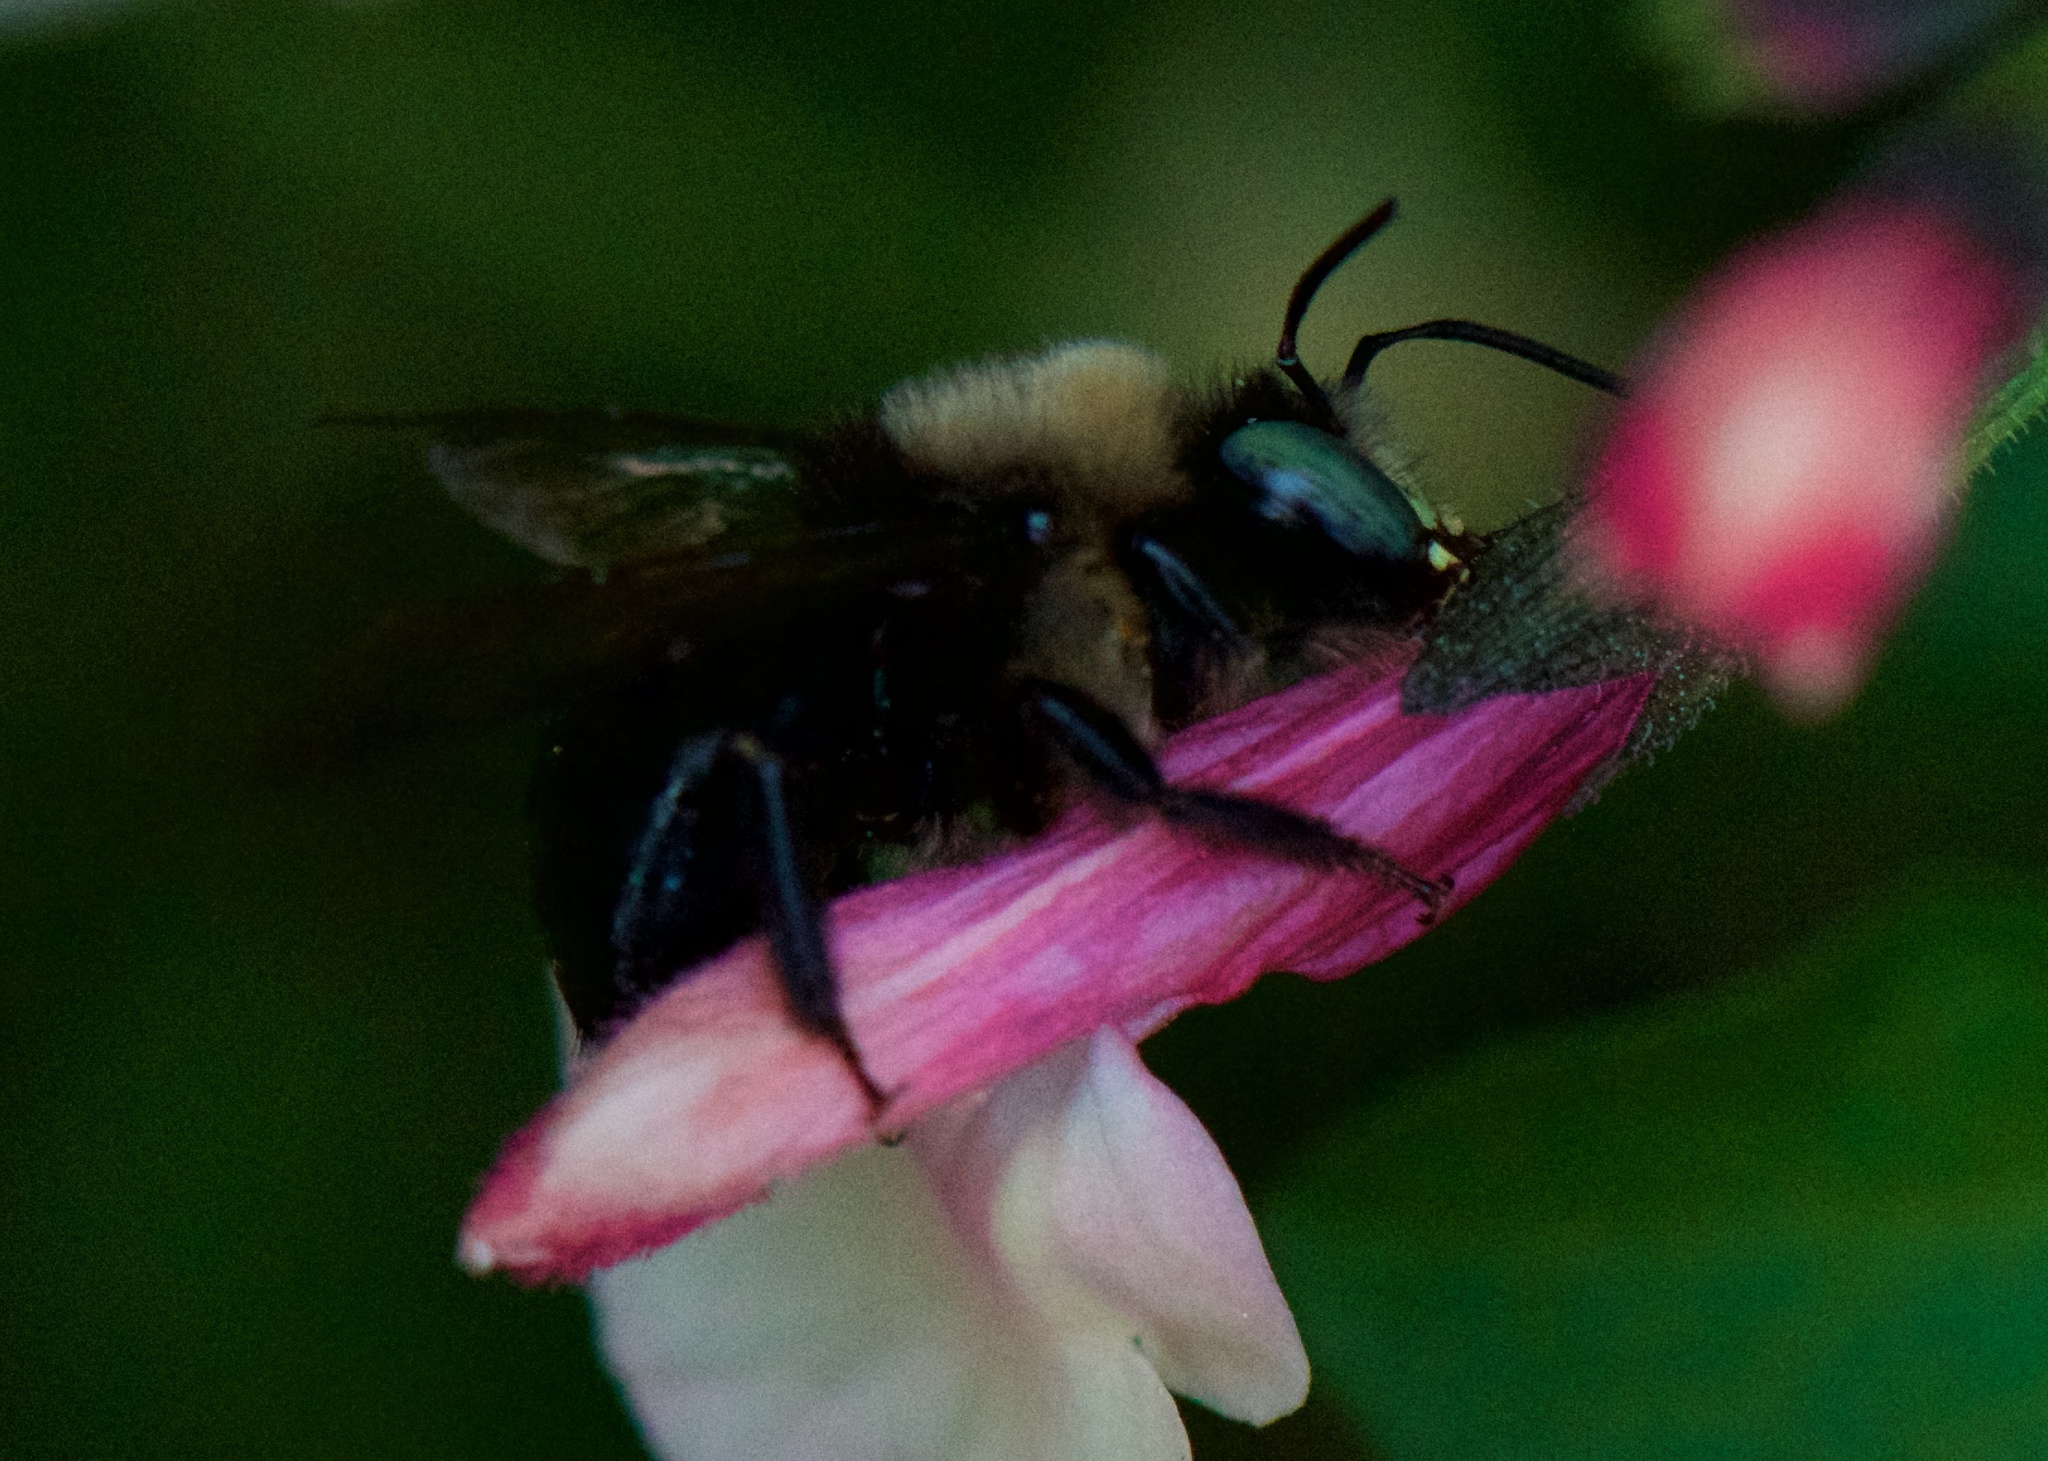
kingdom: Animalia
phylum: Arthropoda
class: Insecta
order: Hymenoptera
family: Apidae
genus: Xylocopa
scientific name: Xylocopa tabaniformis
